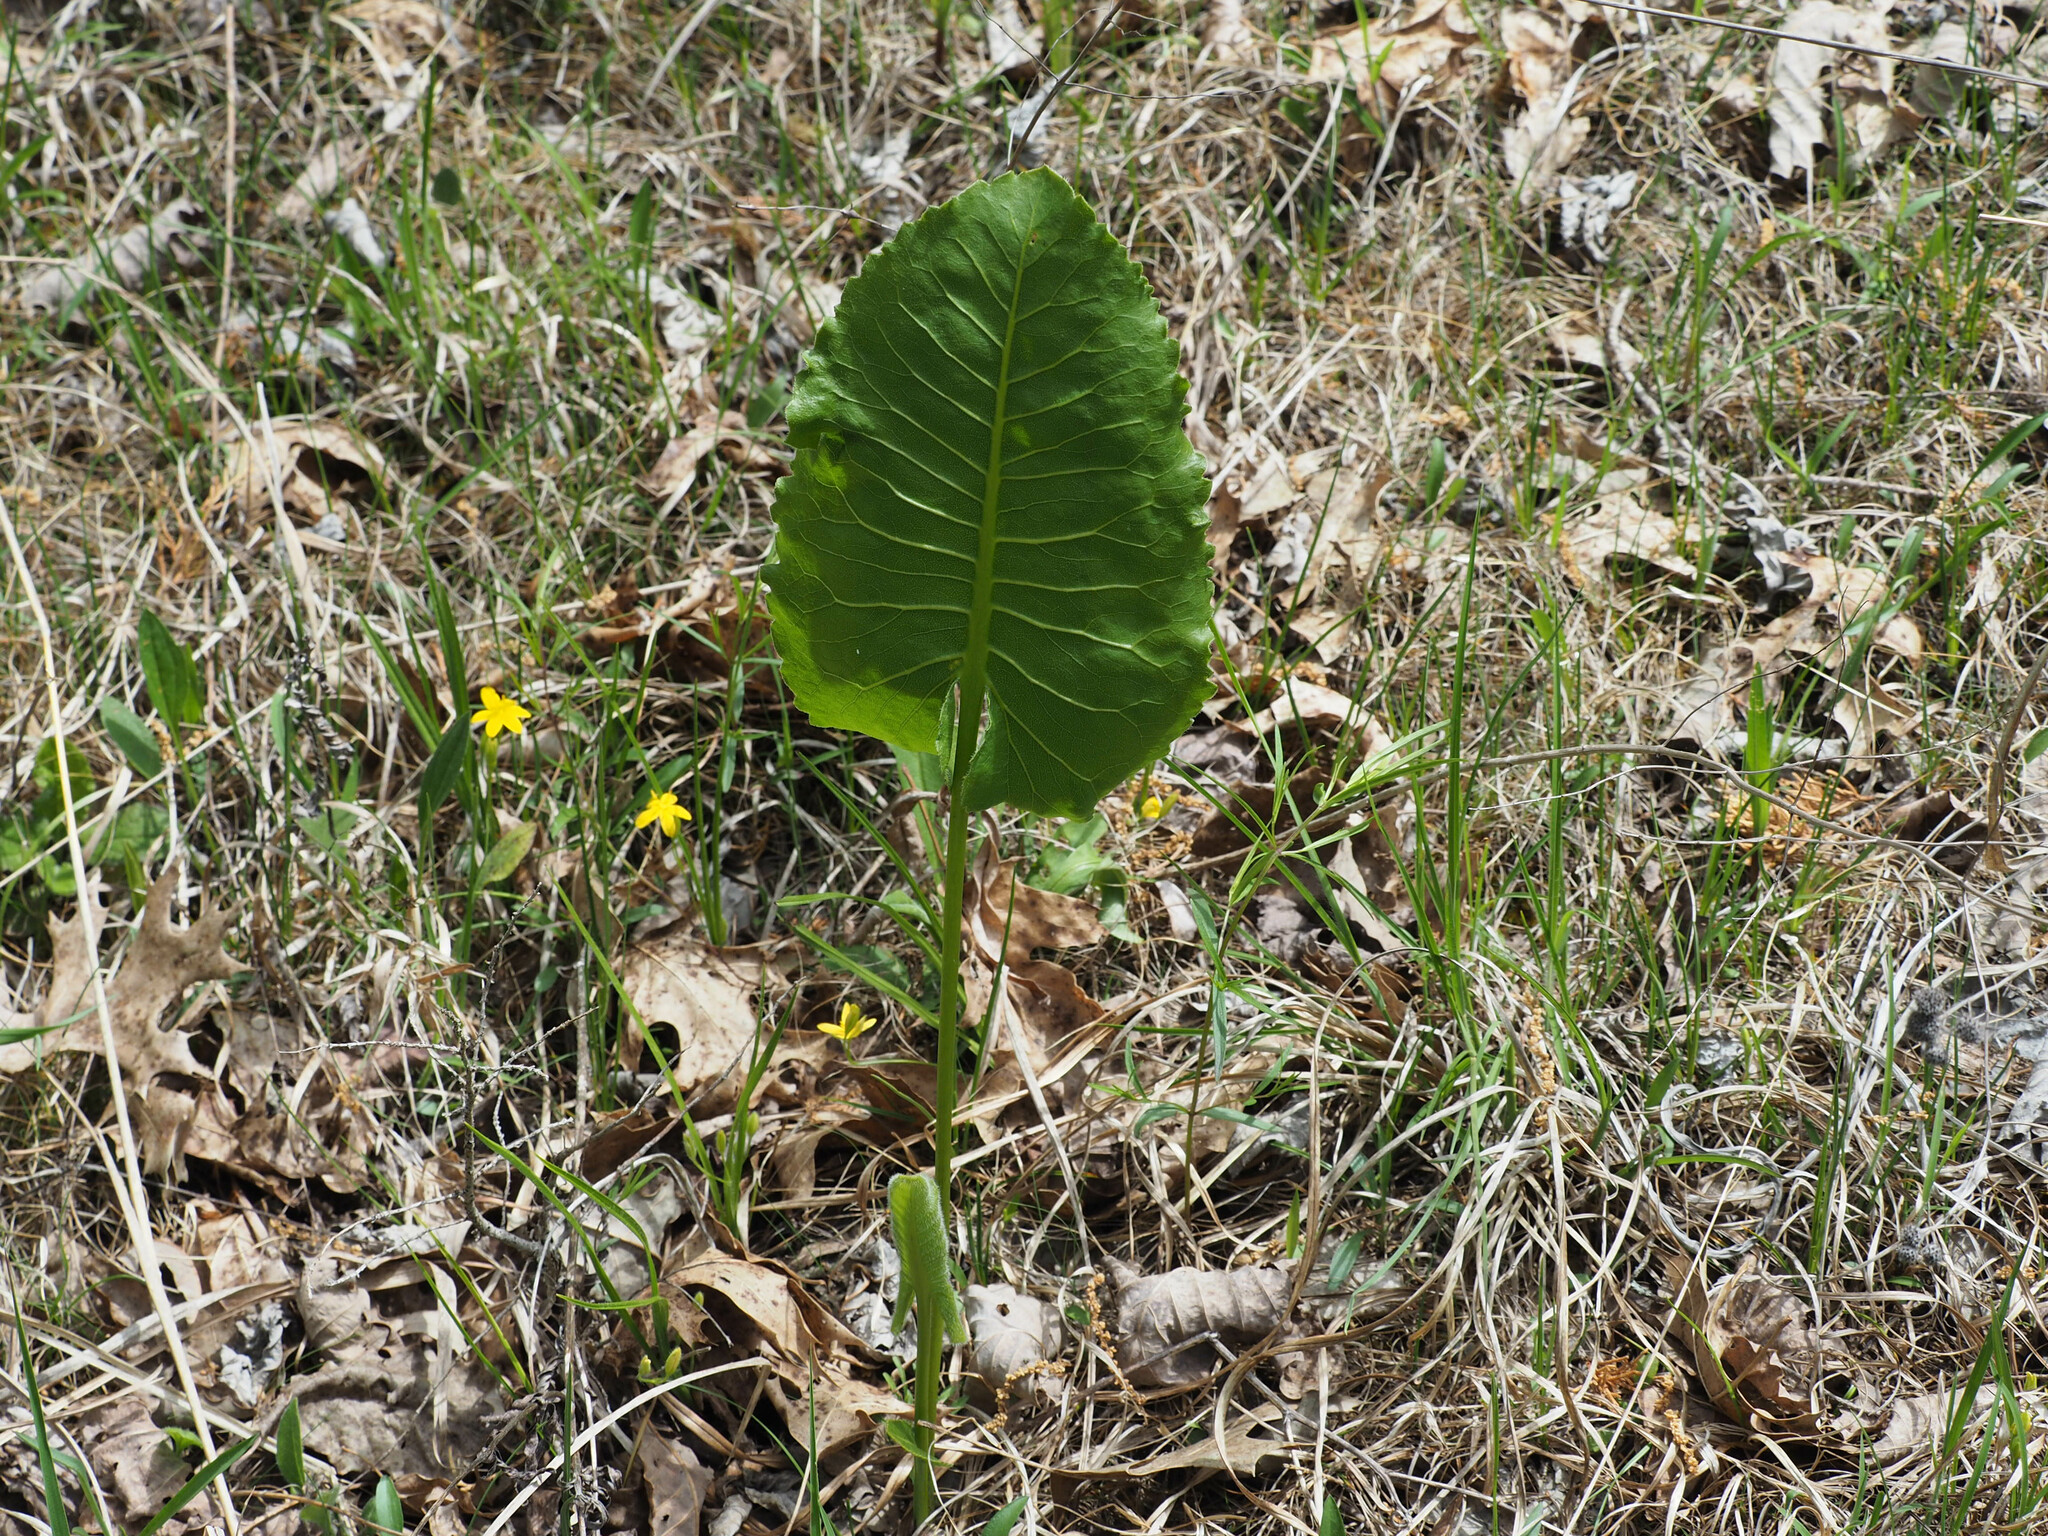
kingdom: Plantae
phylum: Tracheophyta
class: Magnoliopsida
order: Asterales
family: Asteraceae
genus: Silphium
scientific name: Silphium terebinthinaceum
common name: Basal-leaf rosinweed
